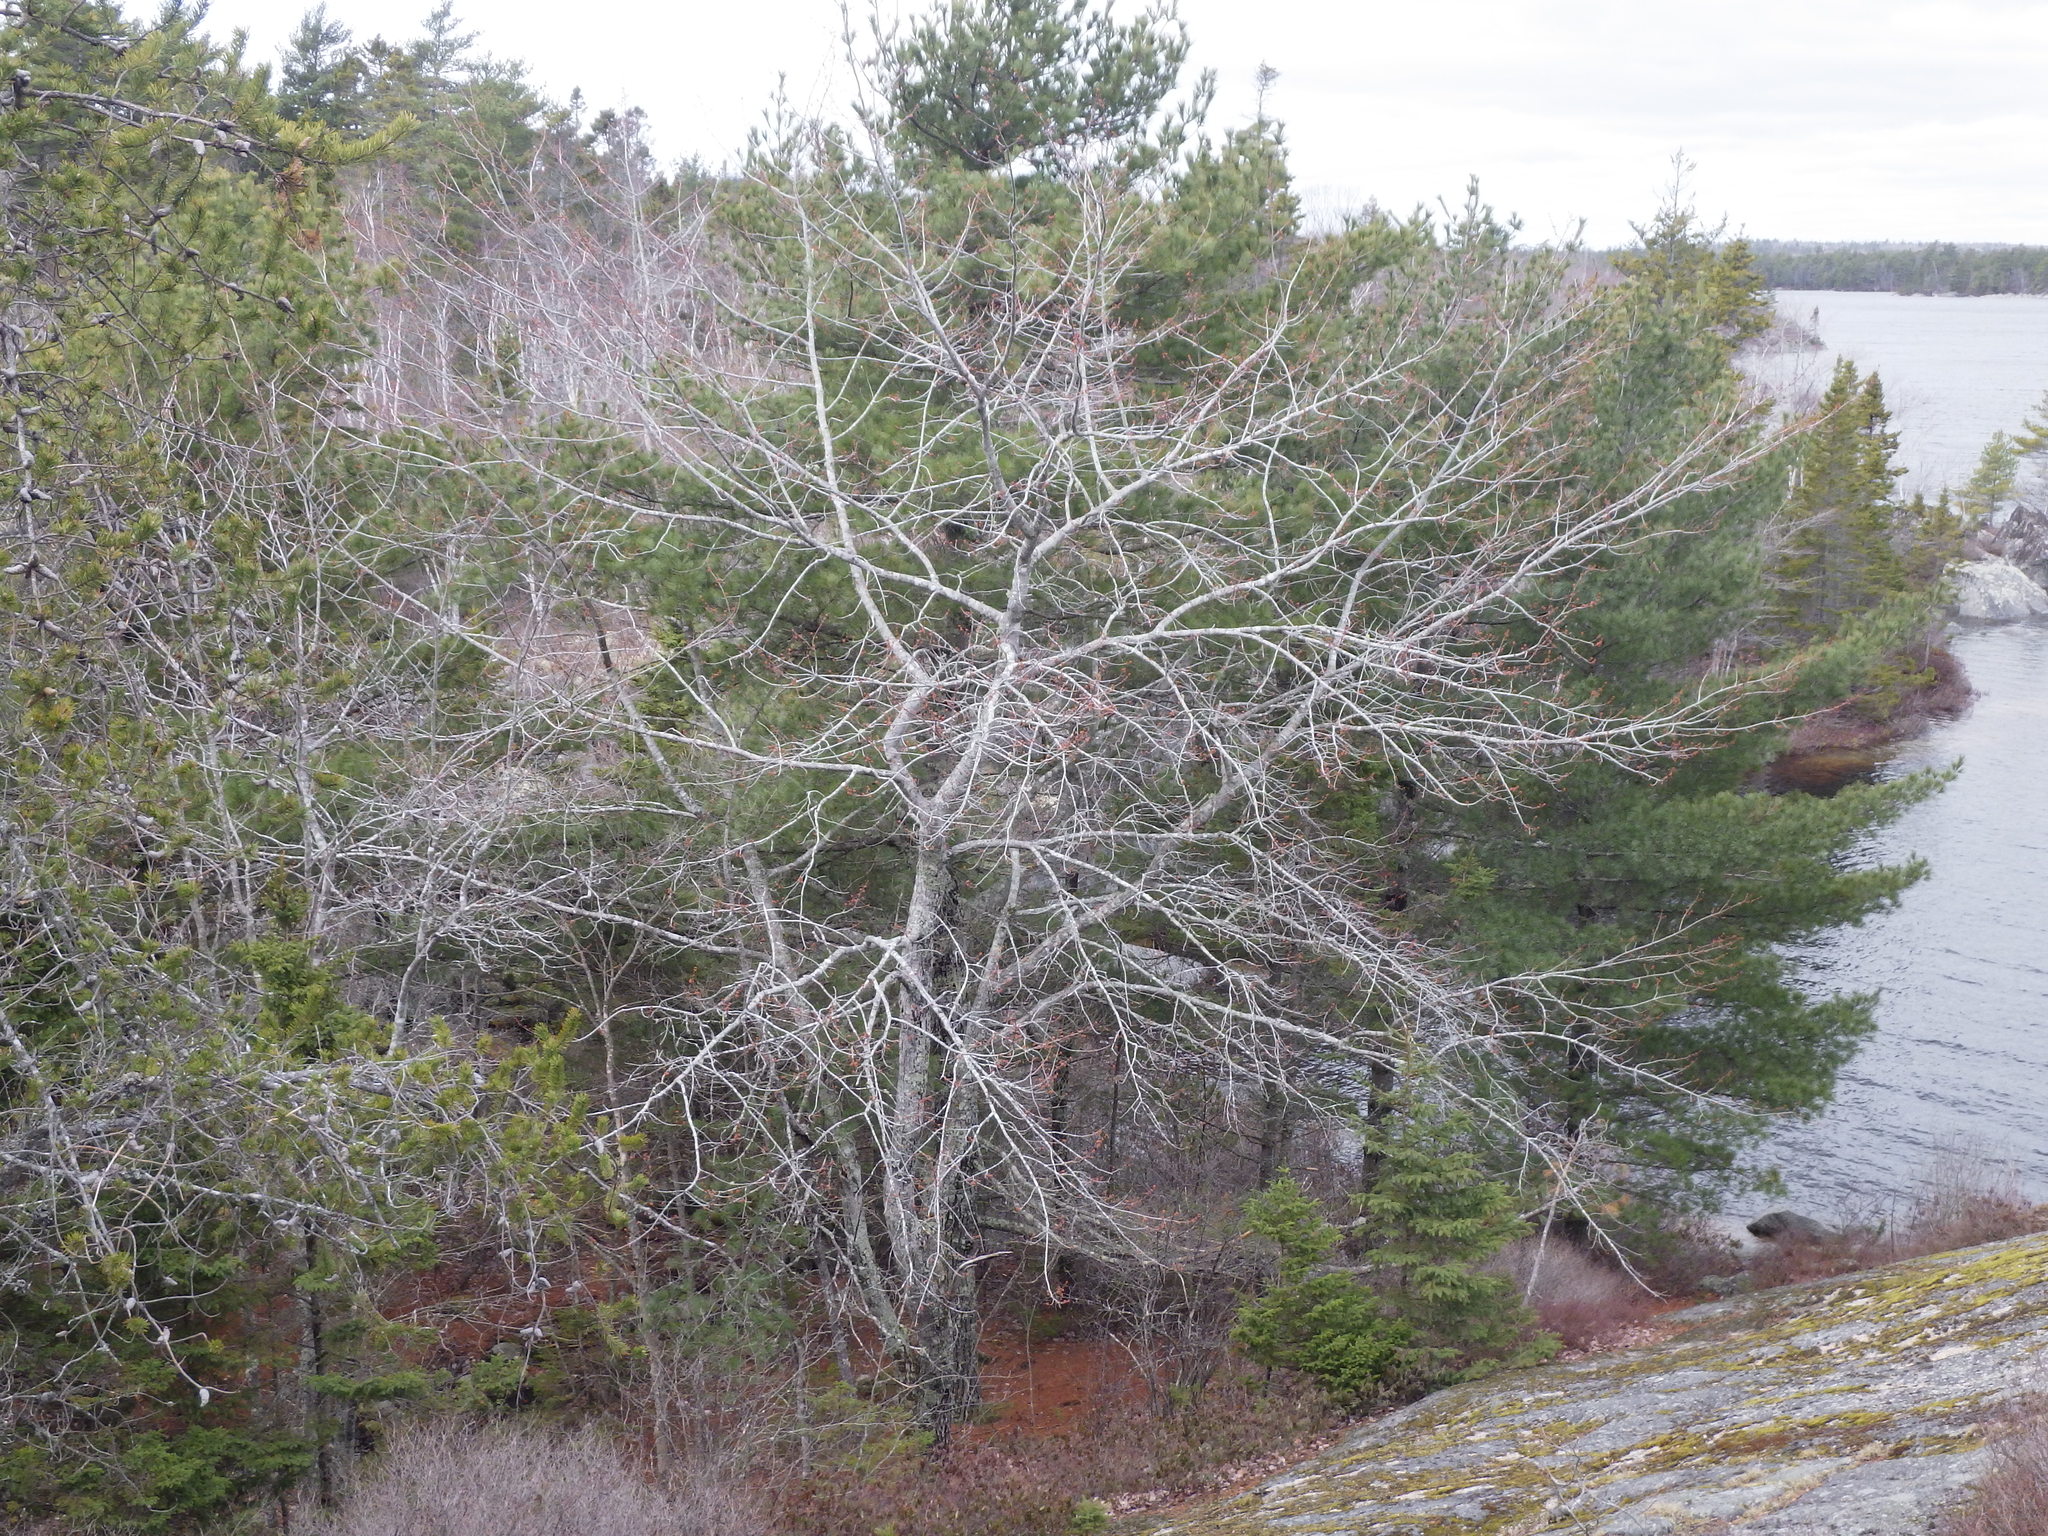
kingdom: Plantae
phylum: Tracheophyta
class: Magnoliopsida
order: Sapindales
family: Sapindaceae
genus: Acer
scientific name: Acer rubrum
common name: Red maple
